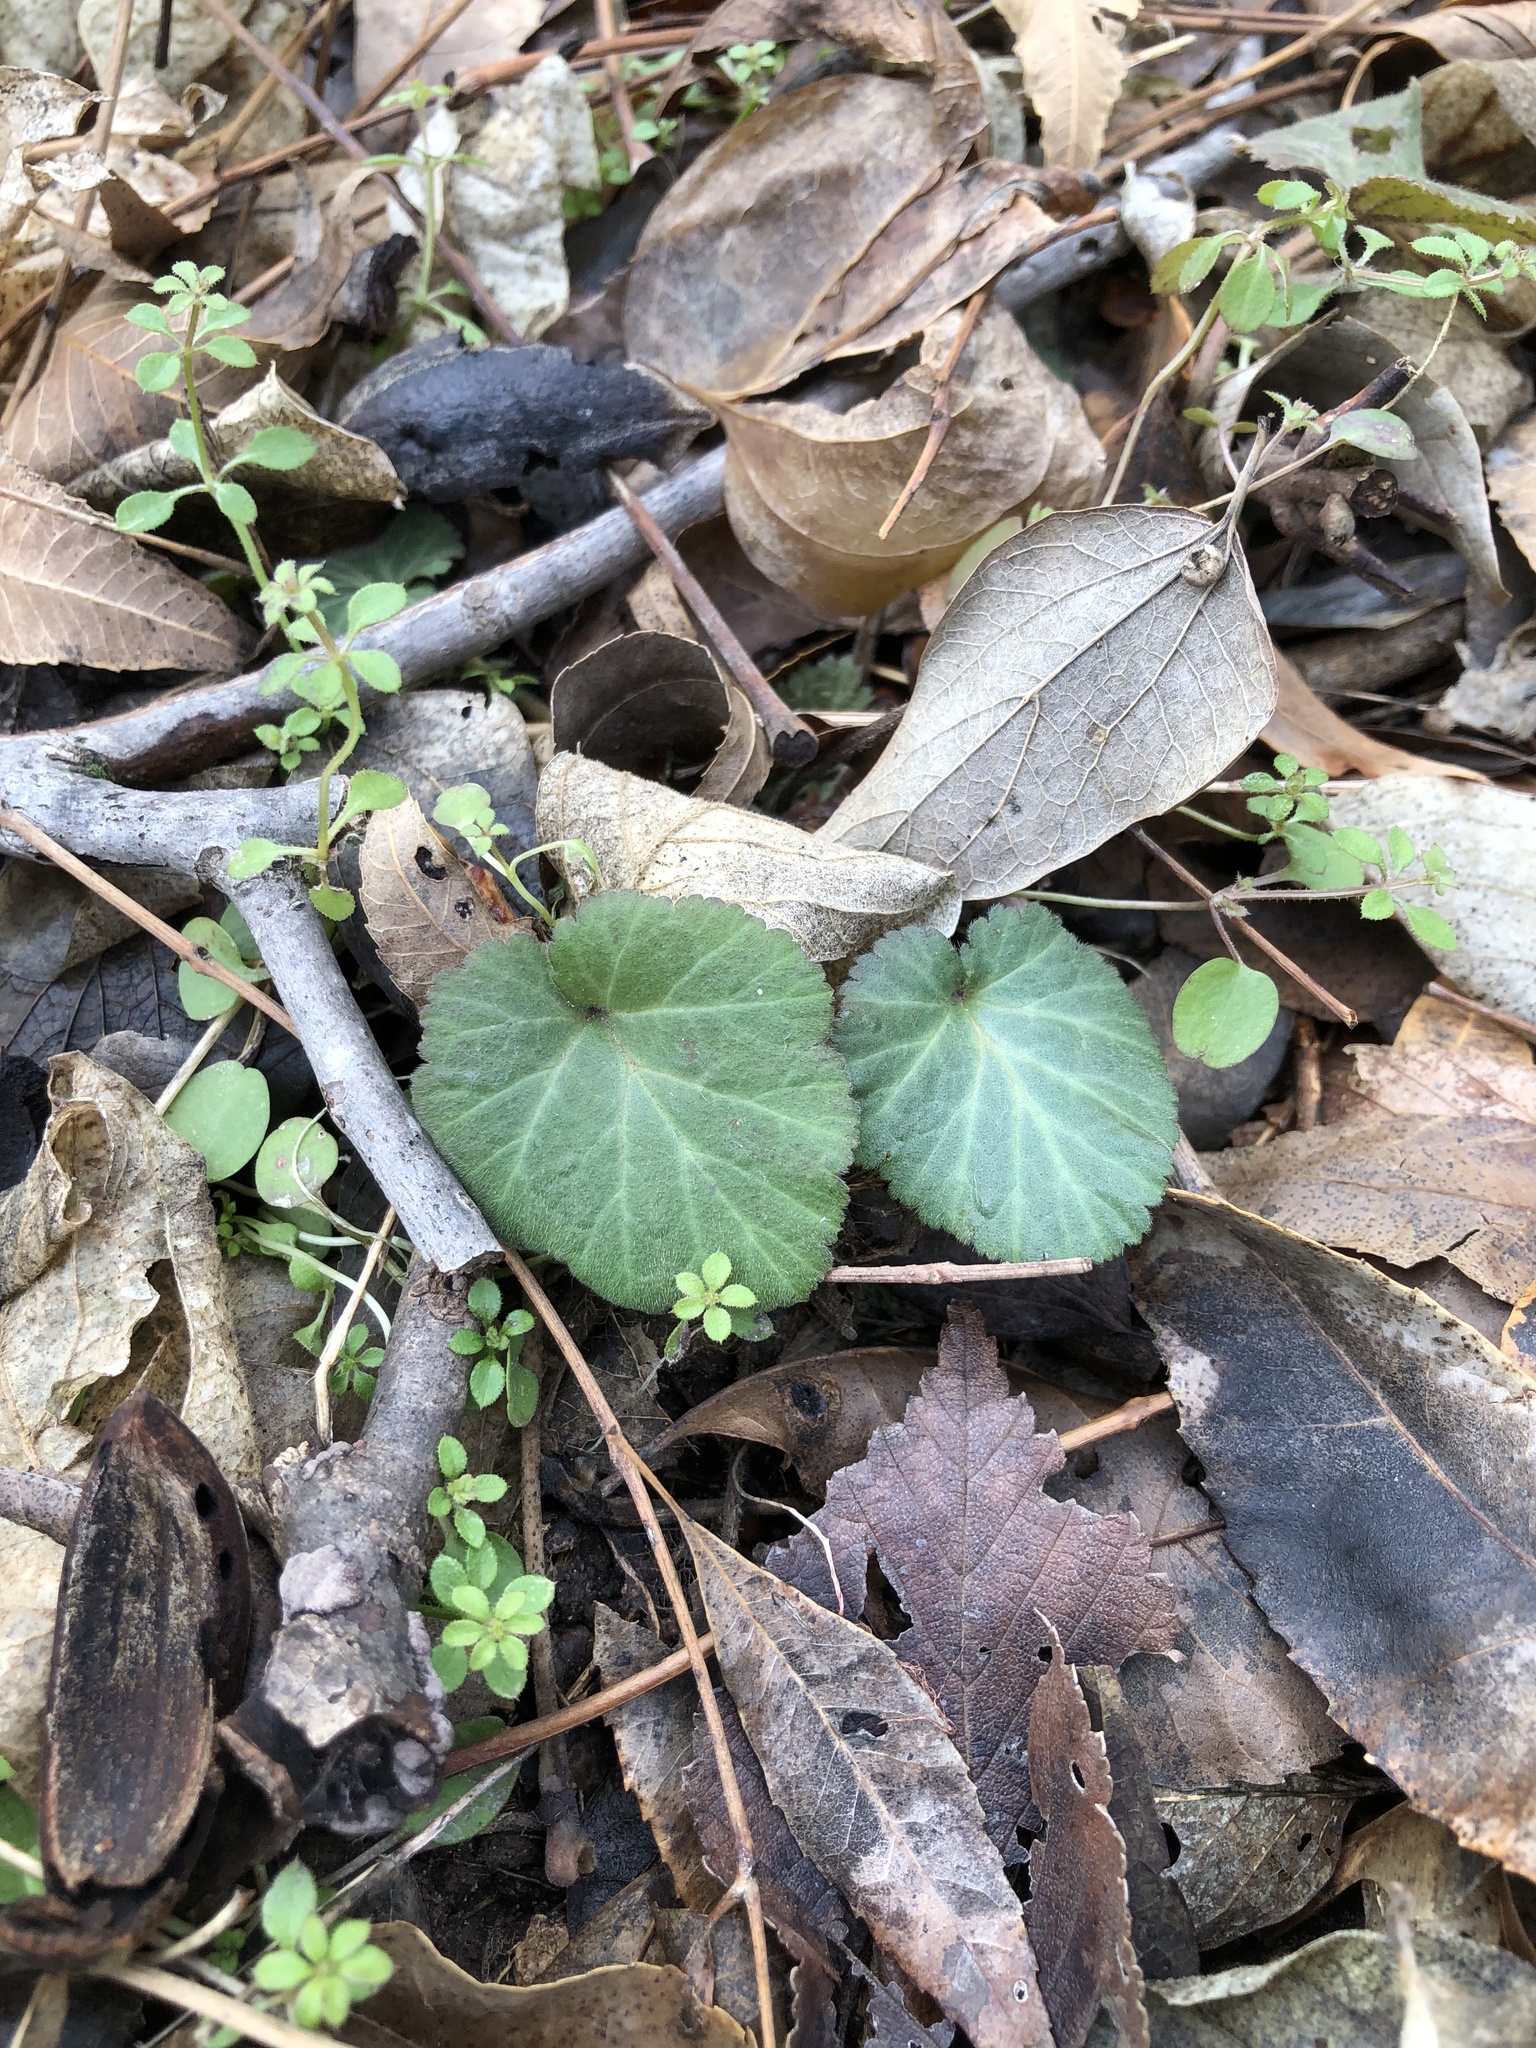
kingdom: Plantae
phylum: Tracheophyta
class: Magnoliopsida
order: Rosales
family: Rosaceae
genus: Geum
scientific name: Geum canadense
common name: White avens
